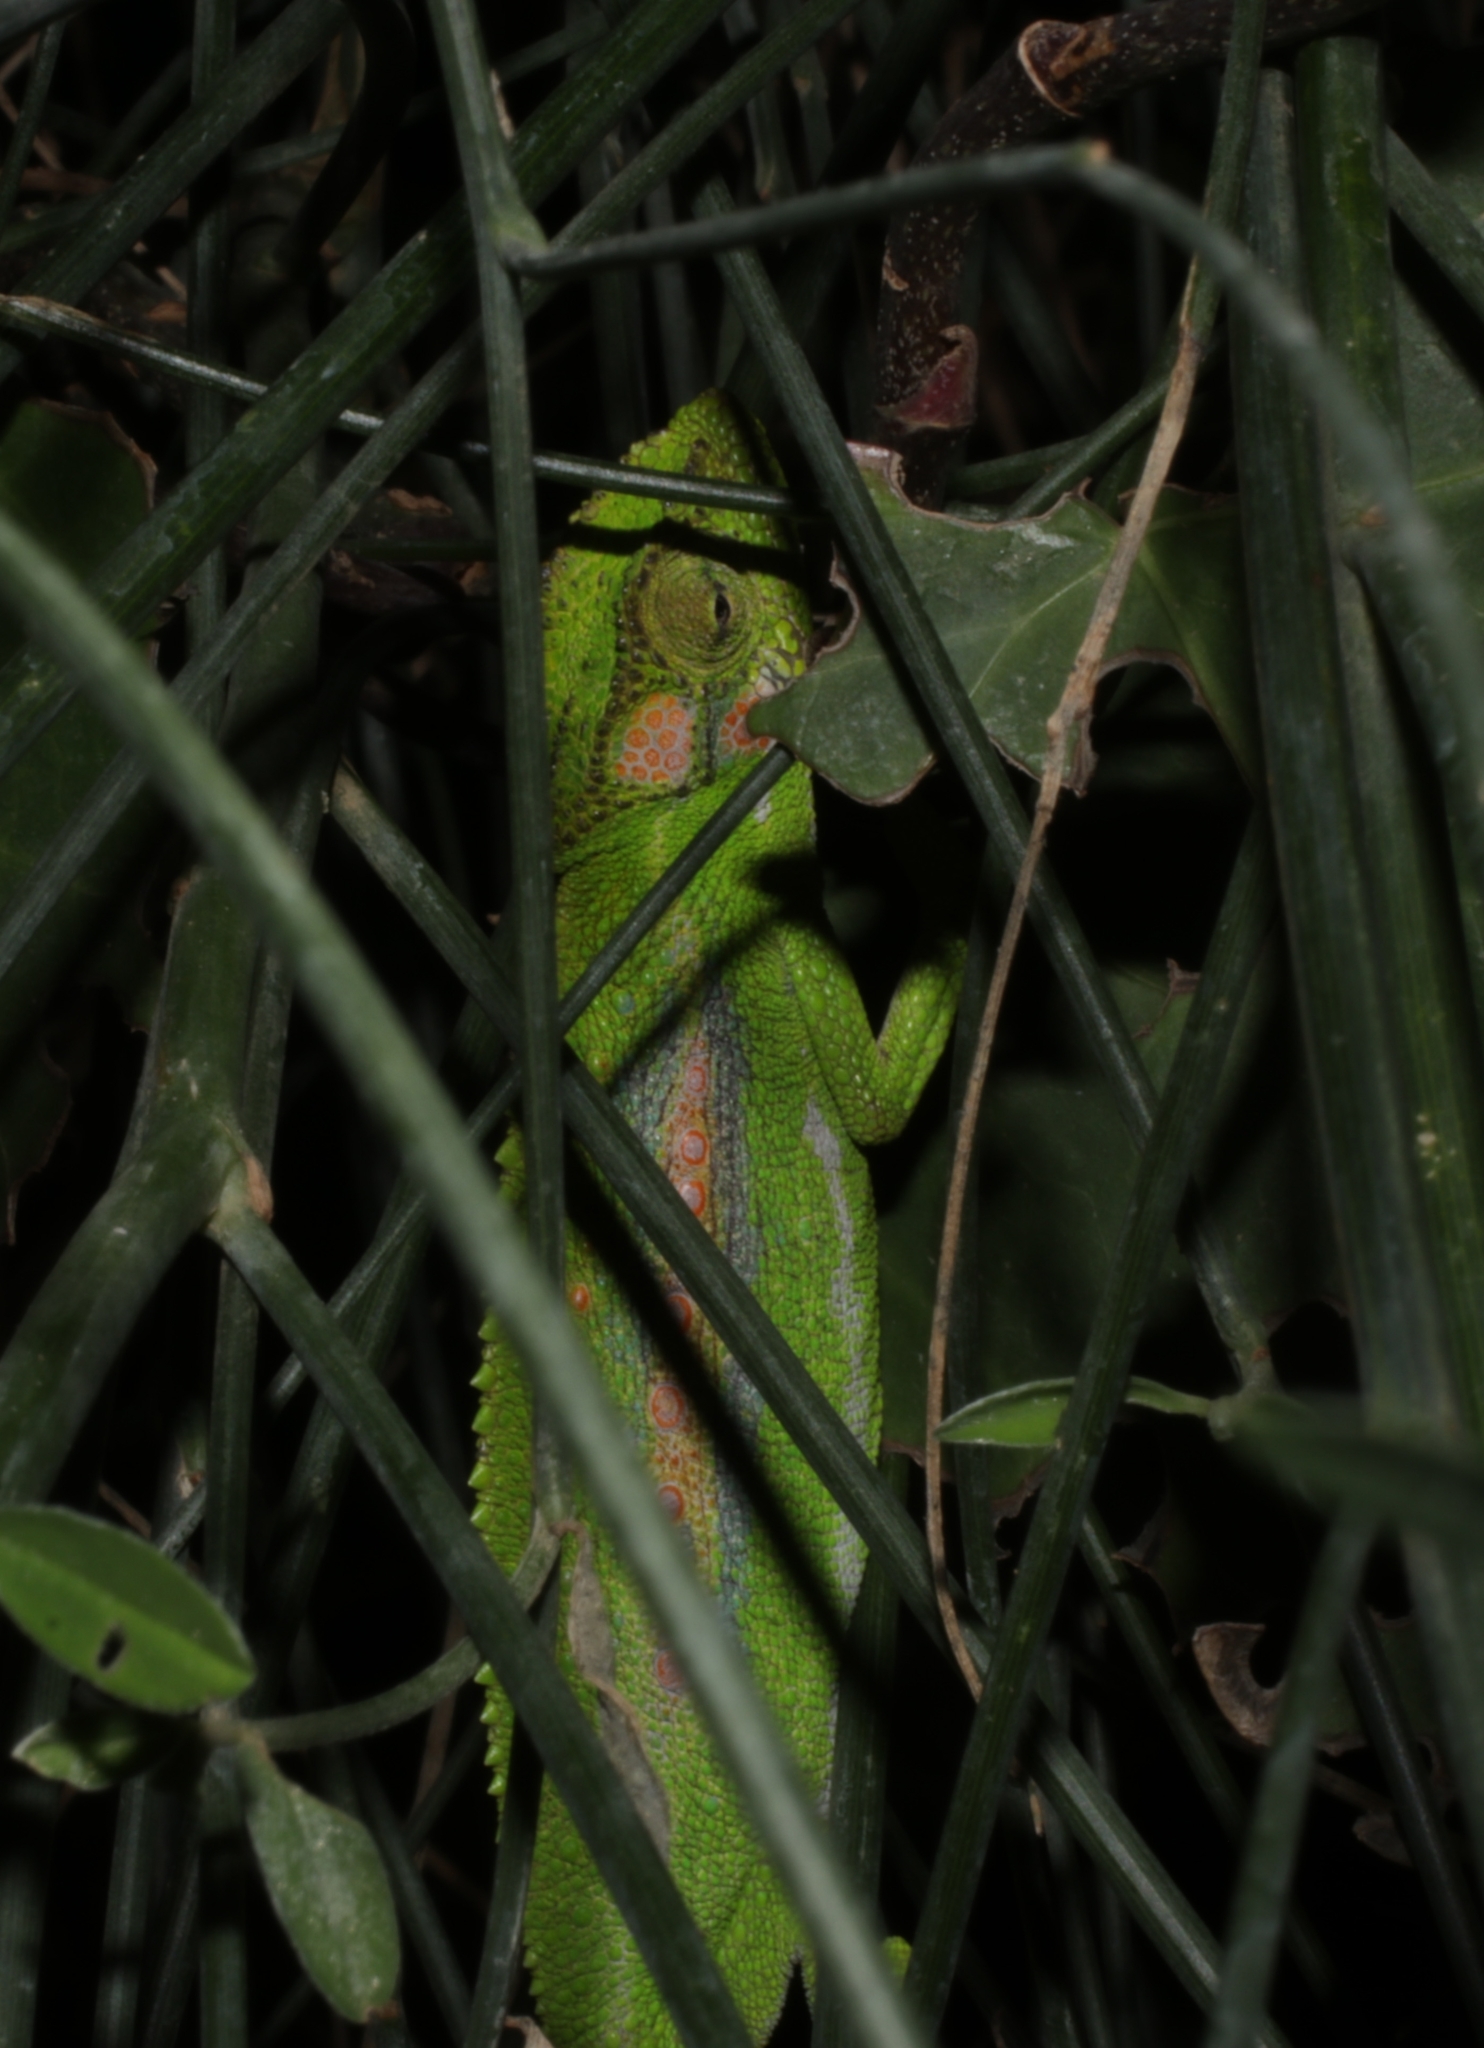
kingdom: Animalia
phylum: Chordata
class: Squamata
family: Chamaeleonidae
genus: Bradypodion
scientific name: Bradypodion pumilum
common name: Cape dwarf chameleon
